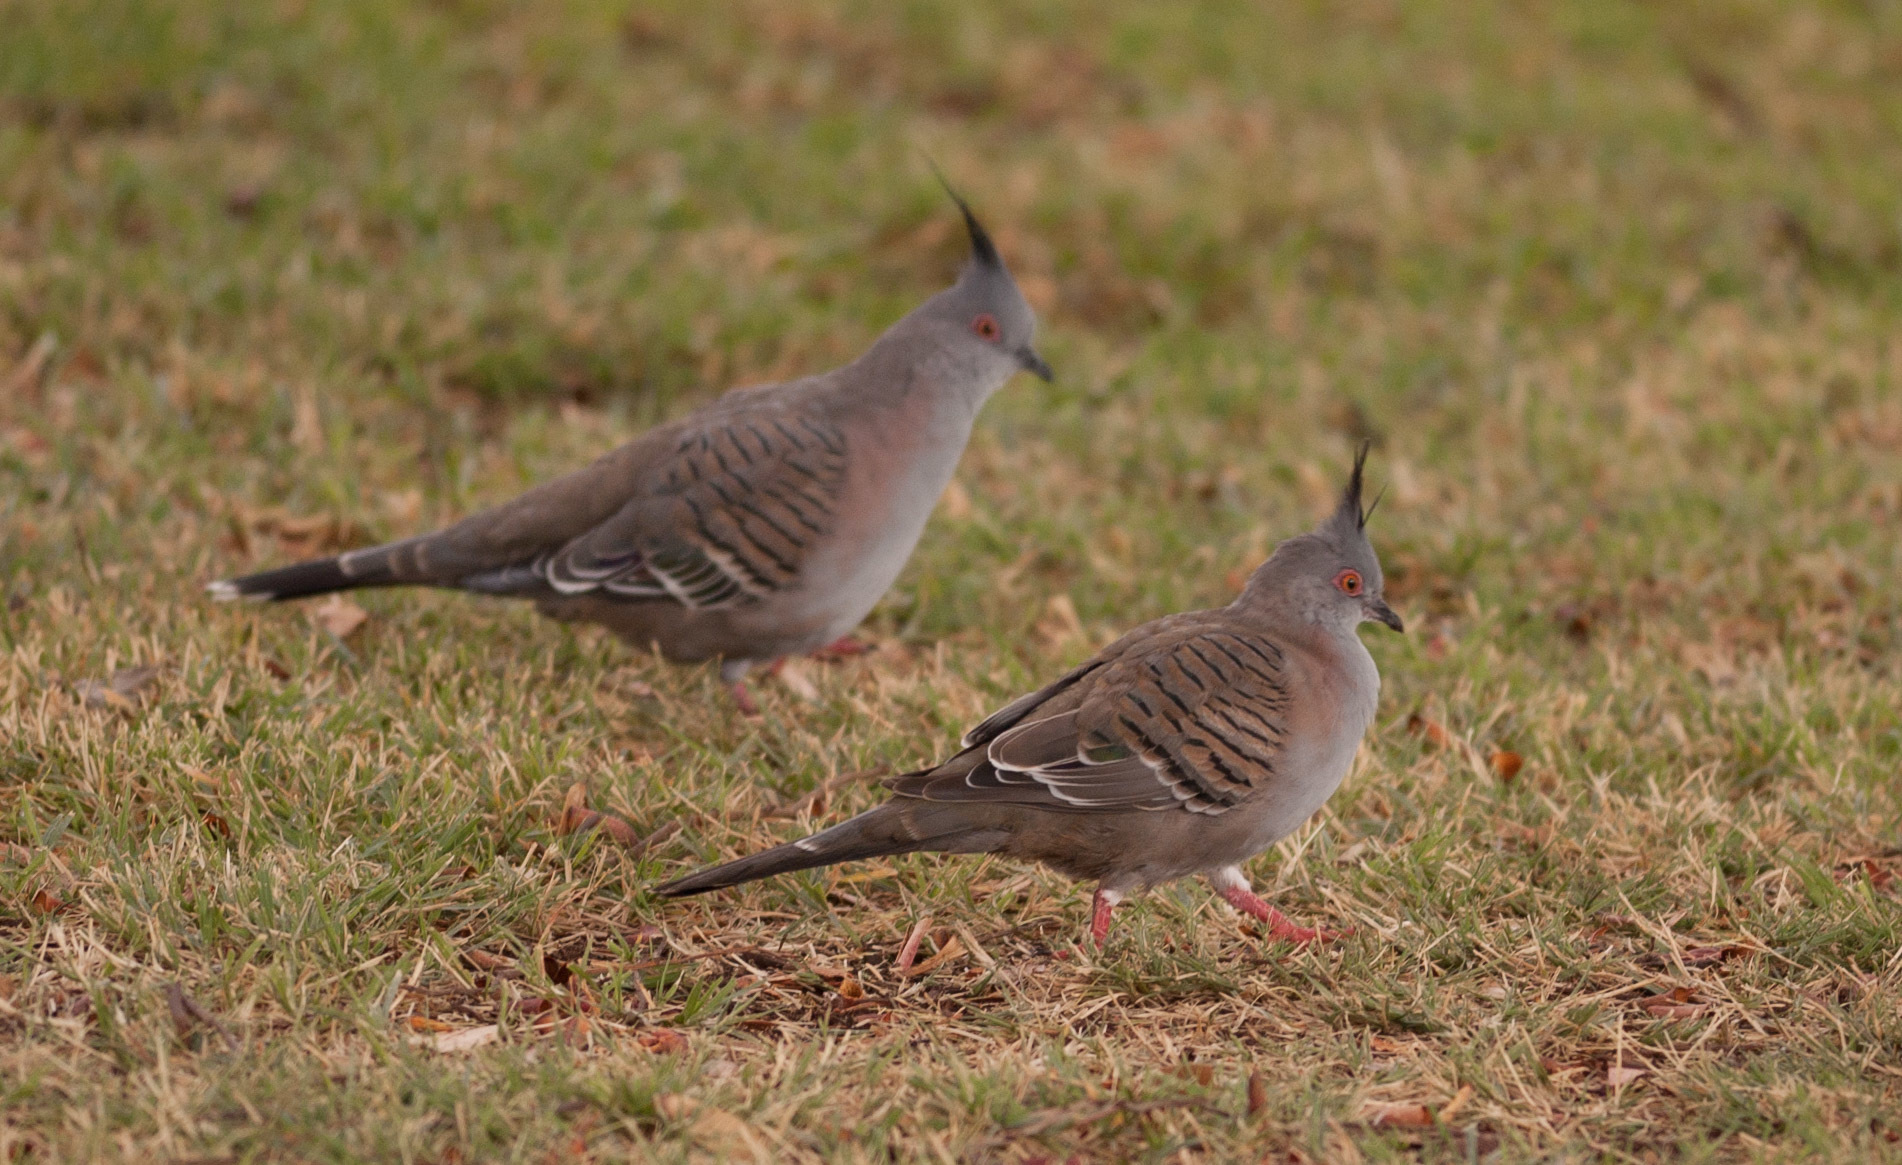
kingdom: Animalia
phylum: Chordata
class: Aves
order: Columbiformes
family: Columbidae
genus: Ocyphaps
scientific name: Ocyphaps lophotes
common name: Crested pigeon
